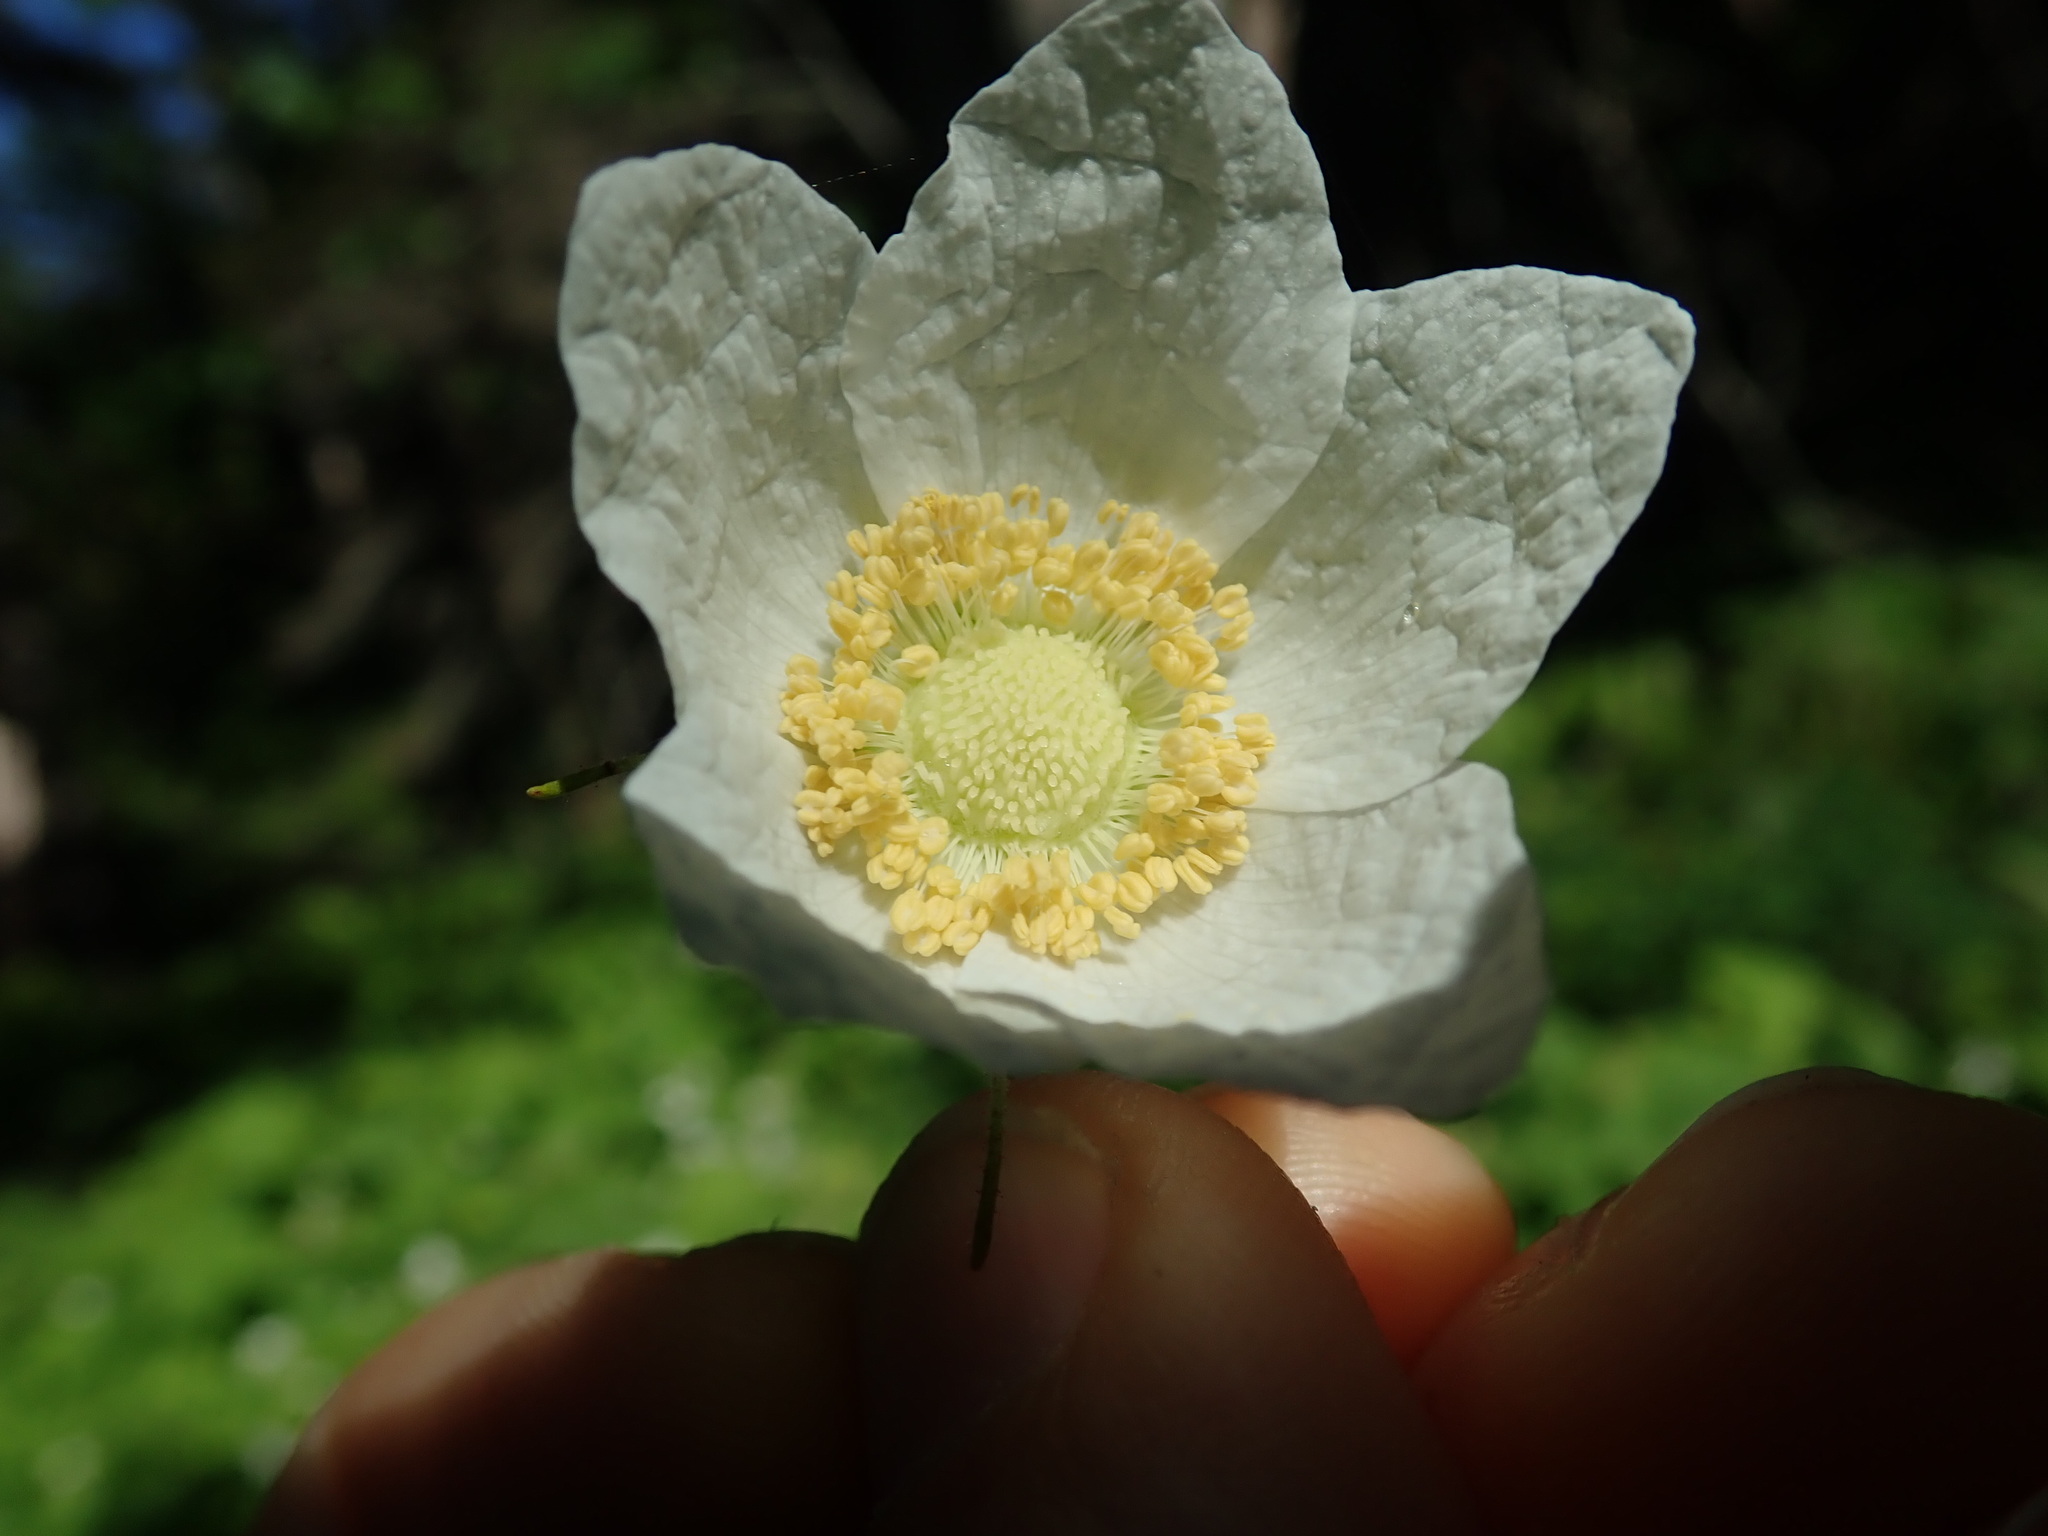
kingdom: Plantae
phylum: Tracheophyta
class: Magnoliopsida
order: Rosales
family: Rosaceae
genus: Rubus
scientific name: Rubus parviflorus
